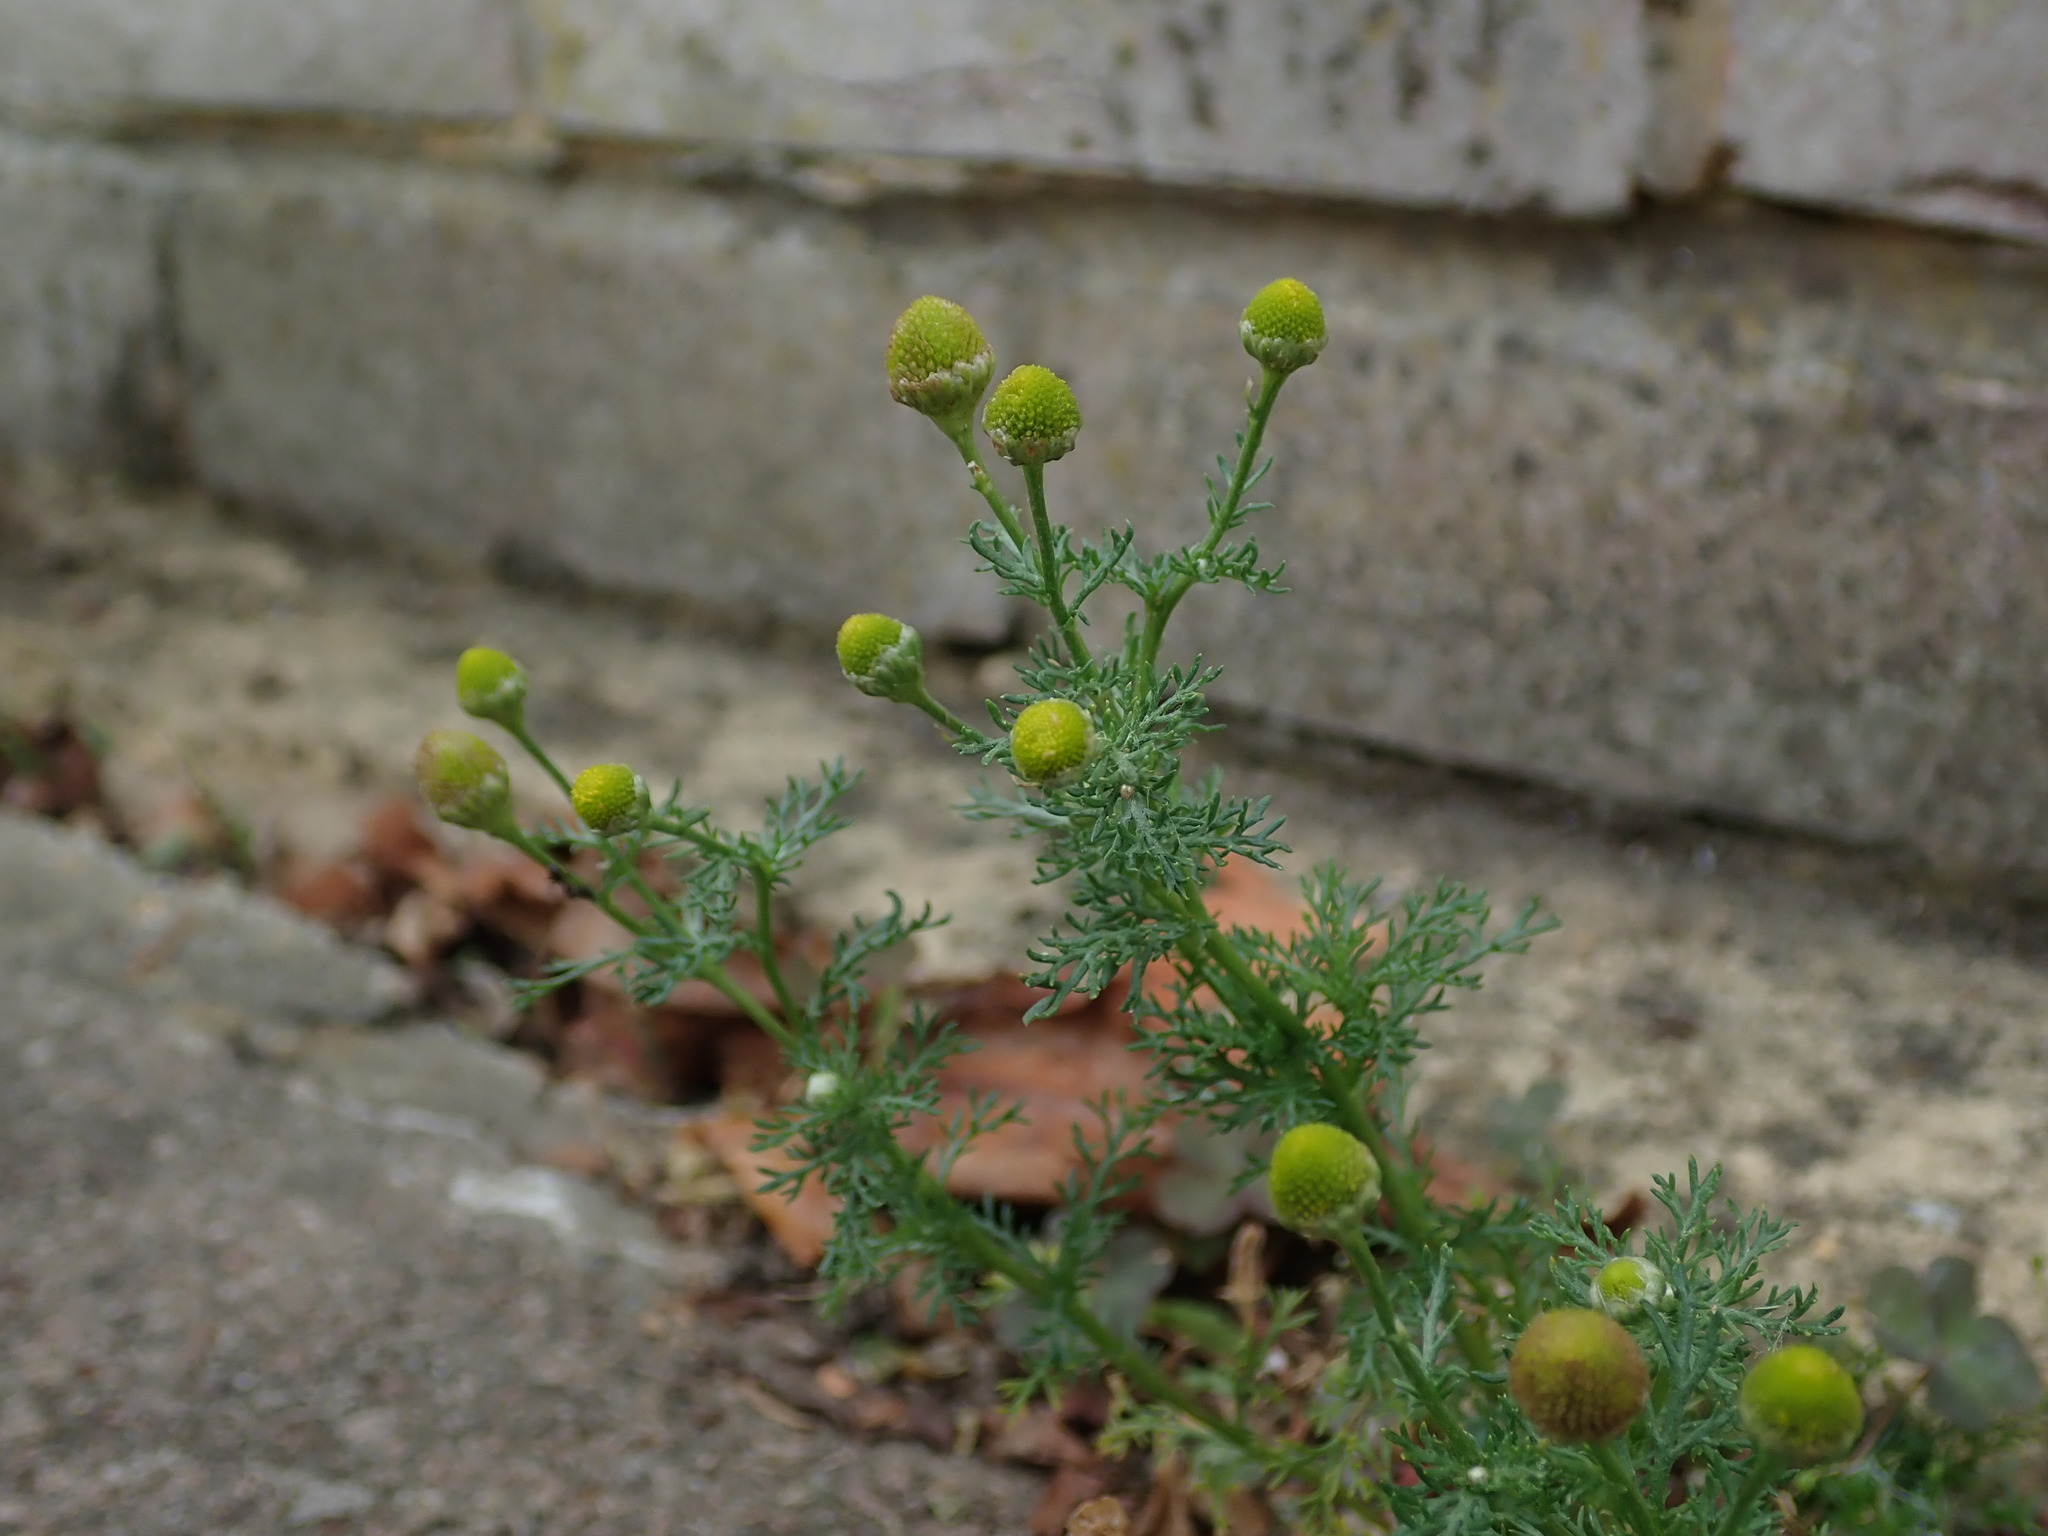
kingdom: Plantae
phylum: Tracheophyta
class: Magnoliopsida
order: Asterales
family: Asteraceae
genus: Matricaria
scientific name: Matricaria discoidea
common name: Disc mayweed
